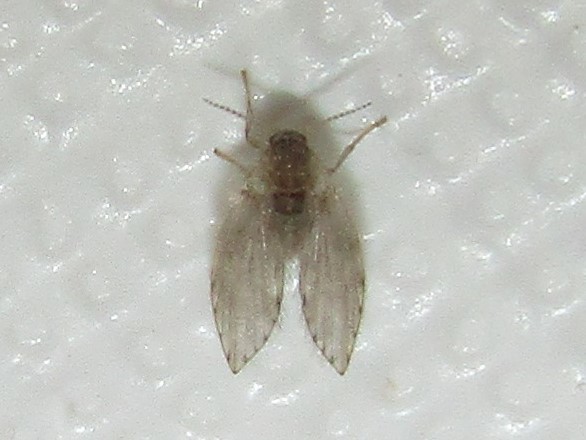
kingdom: Animalia
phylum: Arthropoda
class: Insecta
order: Diptera
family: Psychodidae
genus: Psychoda
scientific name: Psychoda alternata
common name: Moth fly
